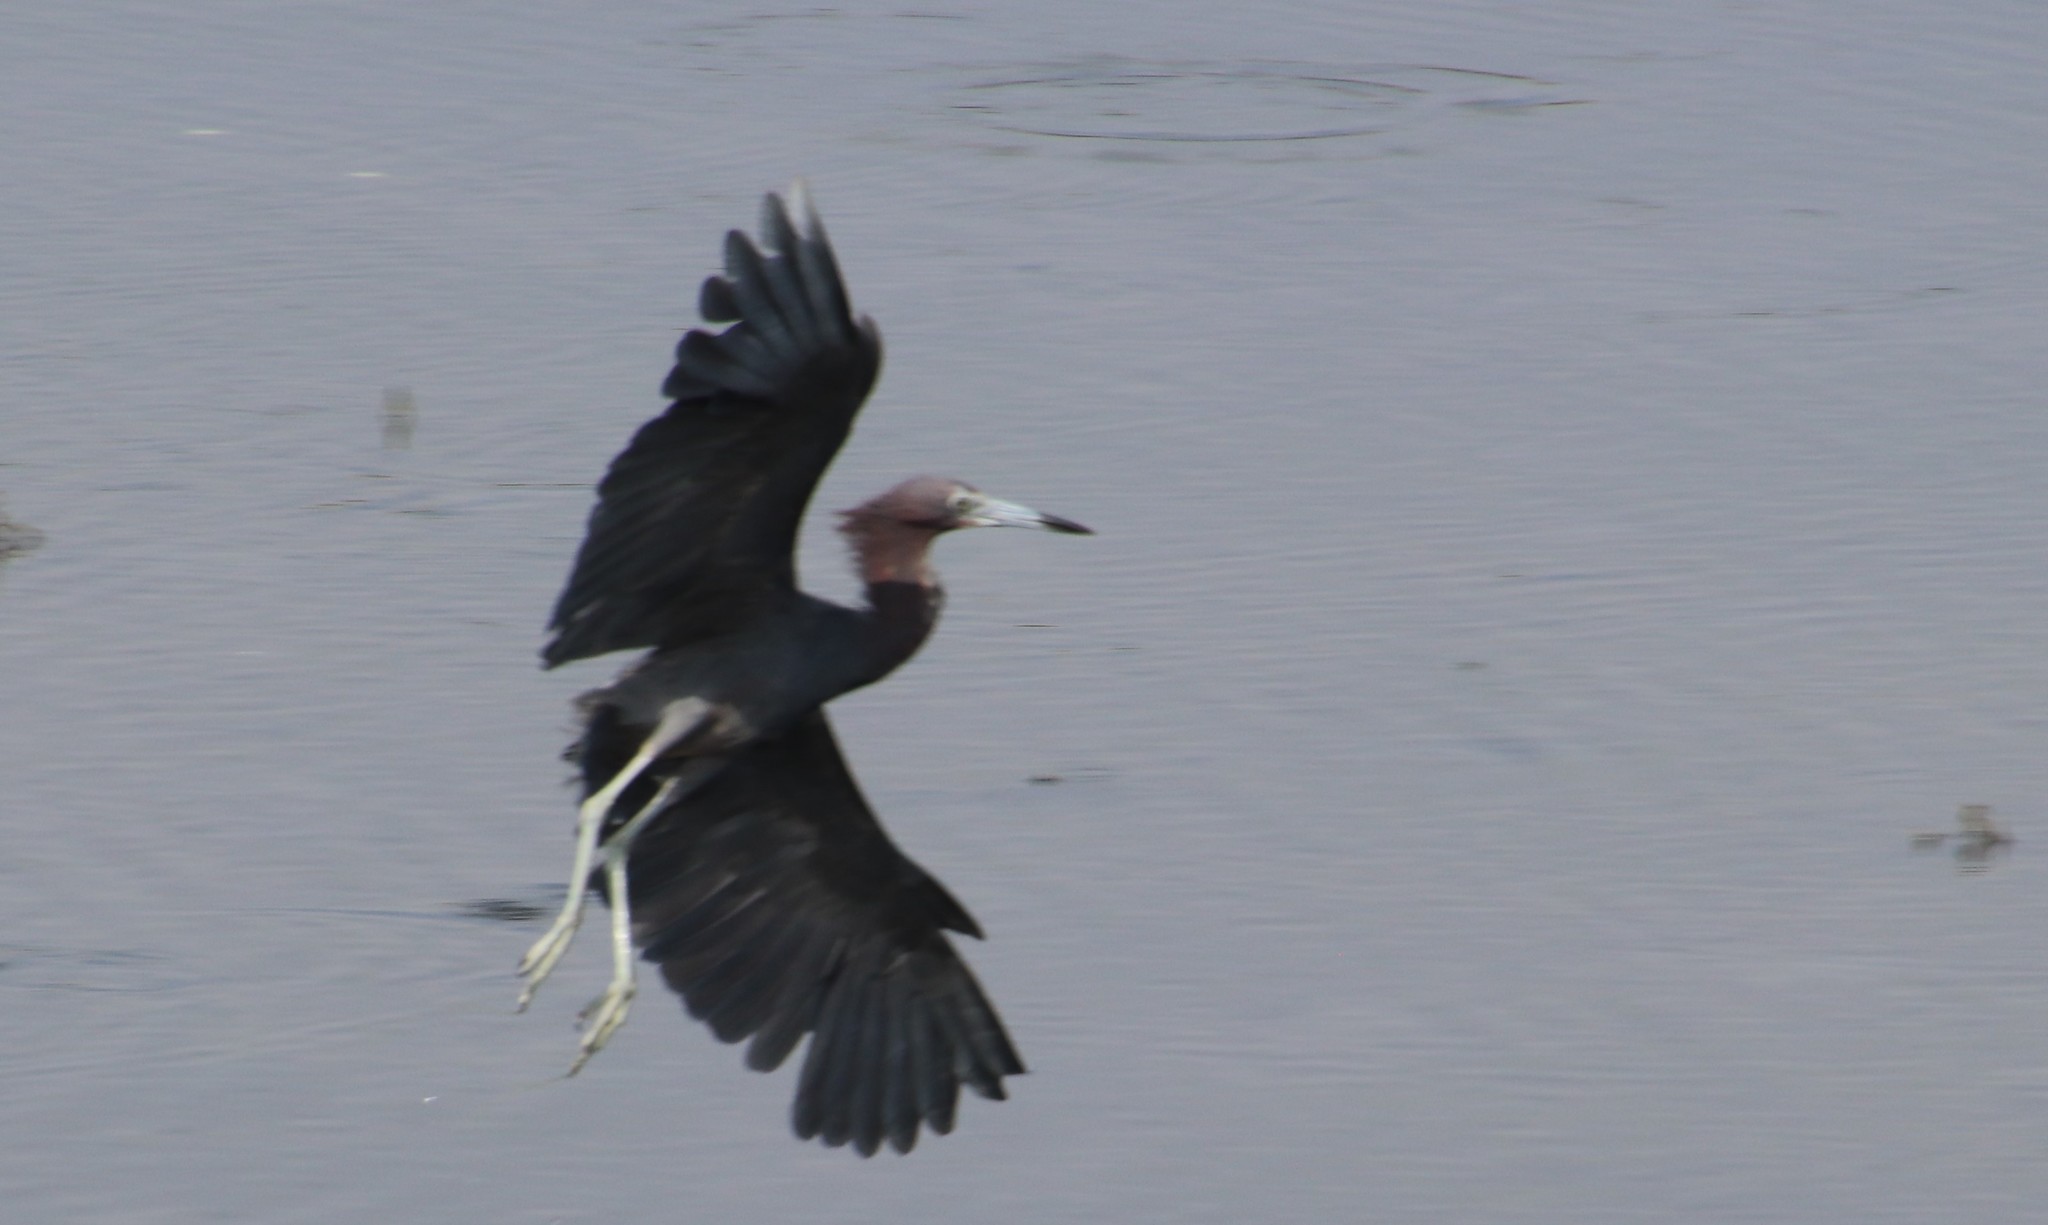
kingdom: Animalia
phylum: Chordata
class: Aves
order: Pelecaniformes
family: Ardeidae
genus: Egretta
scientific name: Egretta caerulea
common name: Little blue heron
